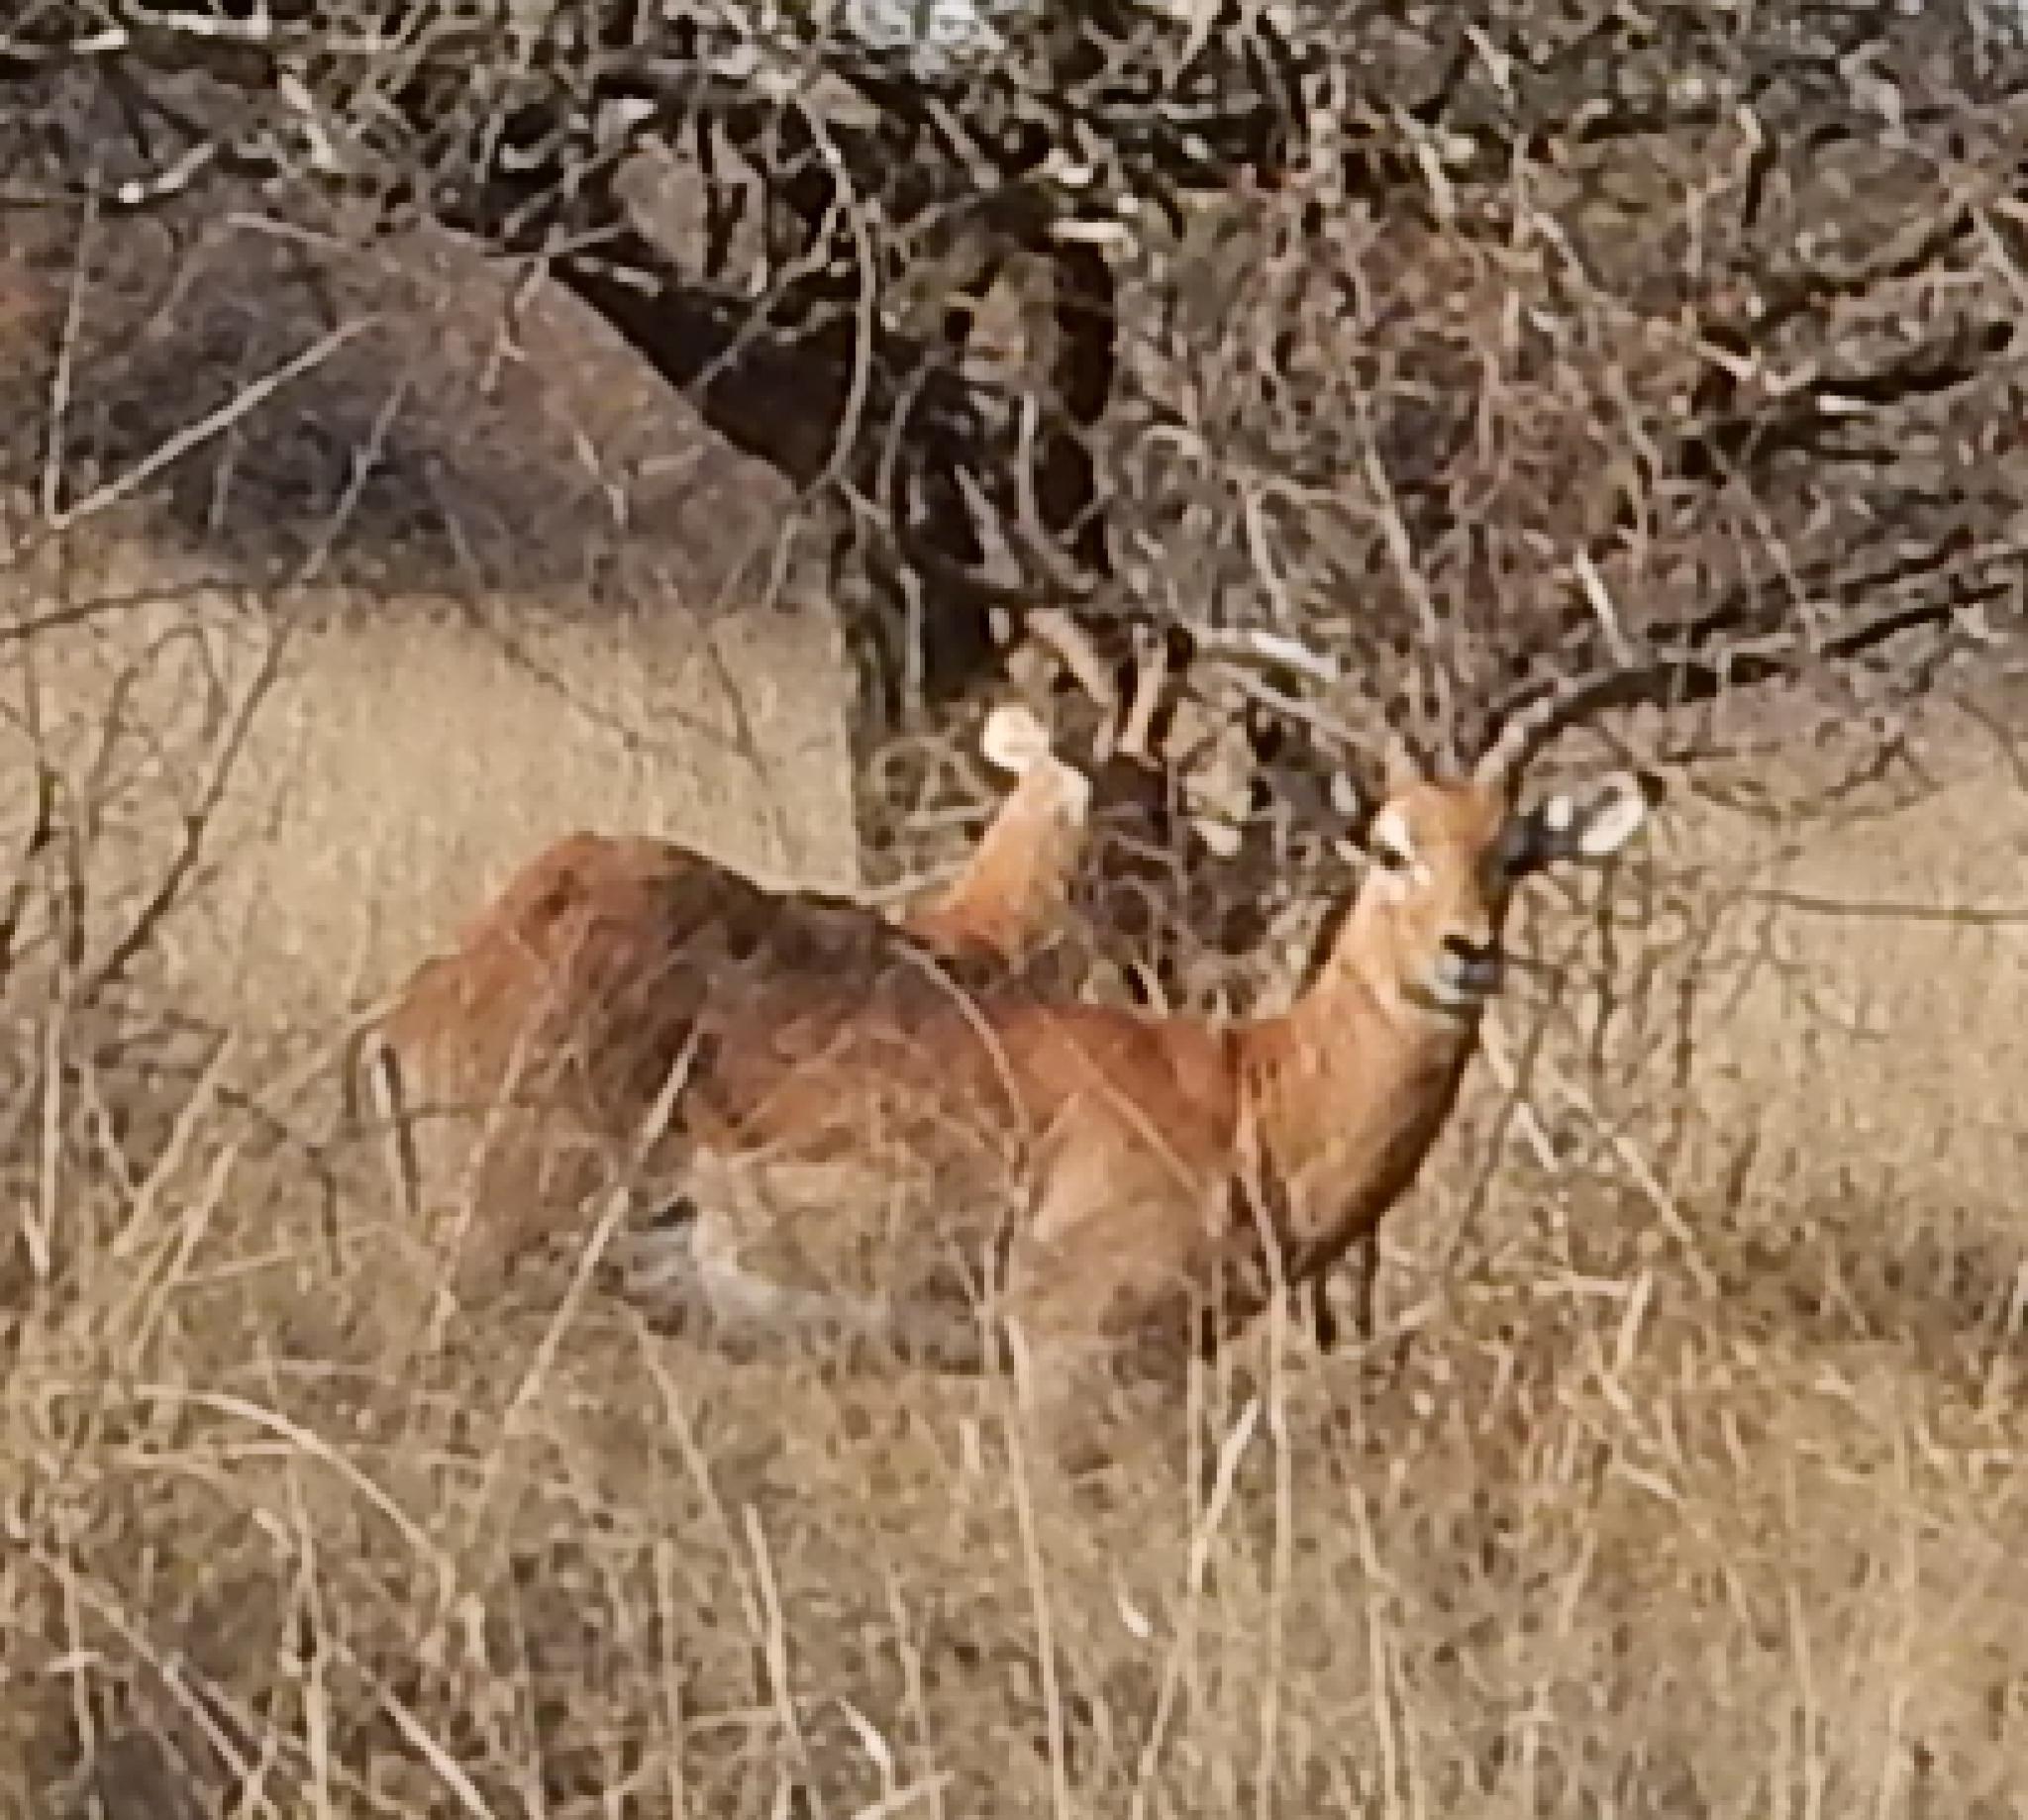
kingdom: Animalia
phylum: Chordata
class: Mammalia
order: Artiodactyla
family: Bovidae
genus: Aepyceros
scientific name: Aepyceros melampus
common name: Impala
